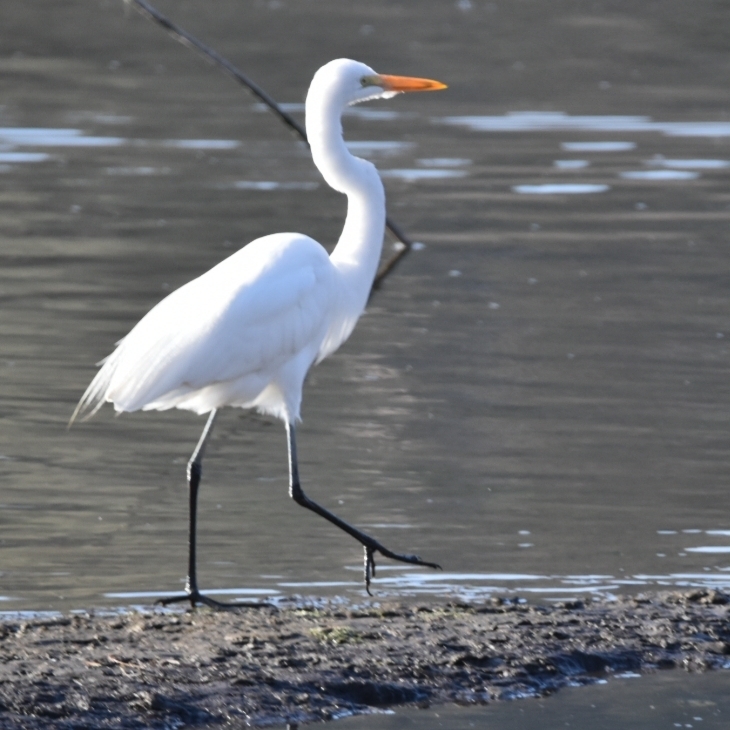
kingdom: Animalia
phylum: Chordata
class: Aves
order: Pelecaniformes
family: Ardeidae
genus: Ardea
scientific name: Ardea alba
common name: Great egret
